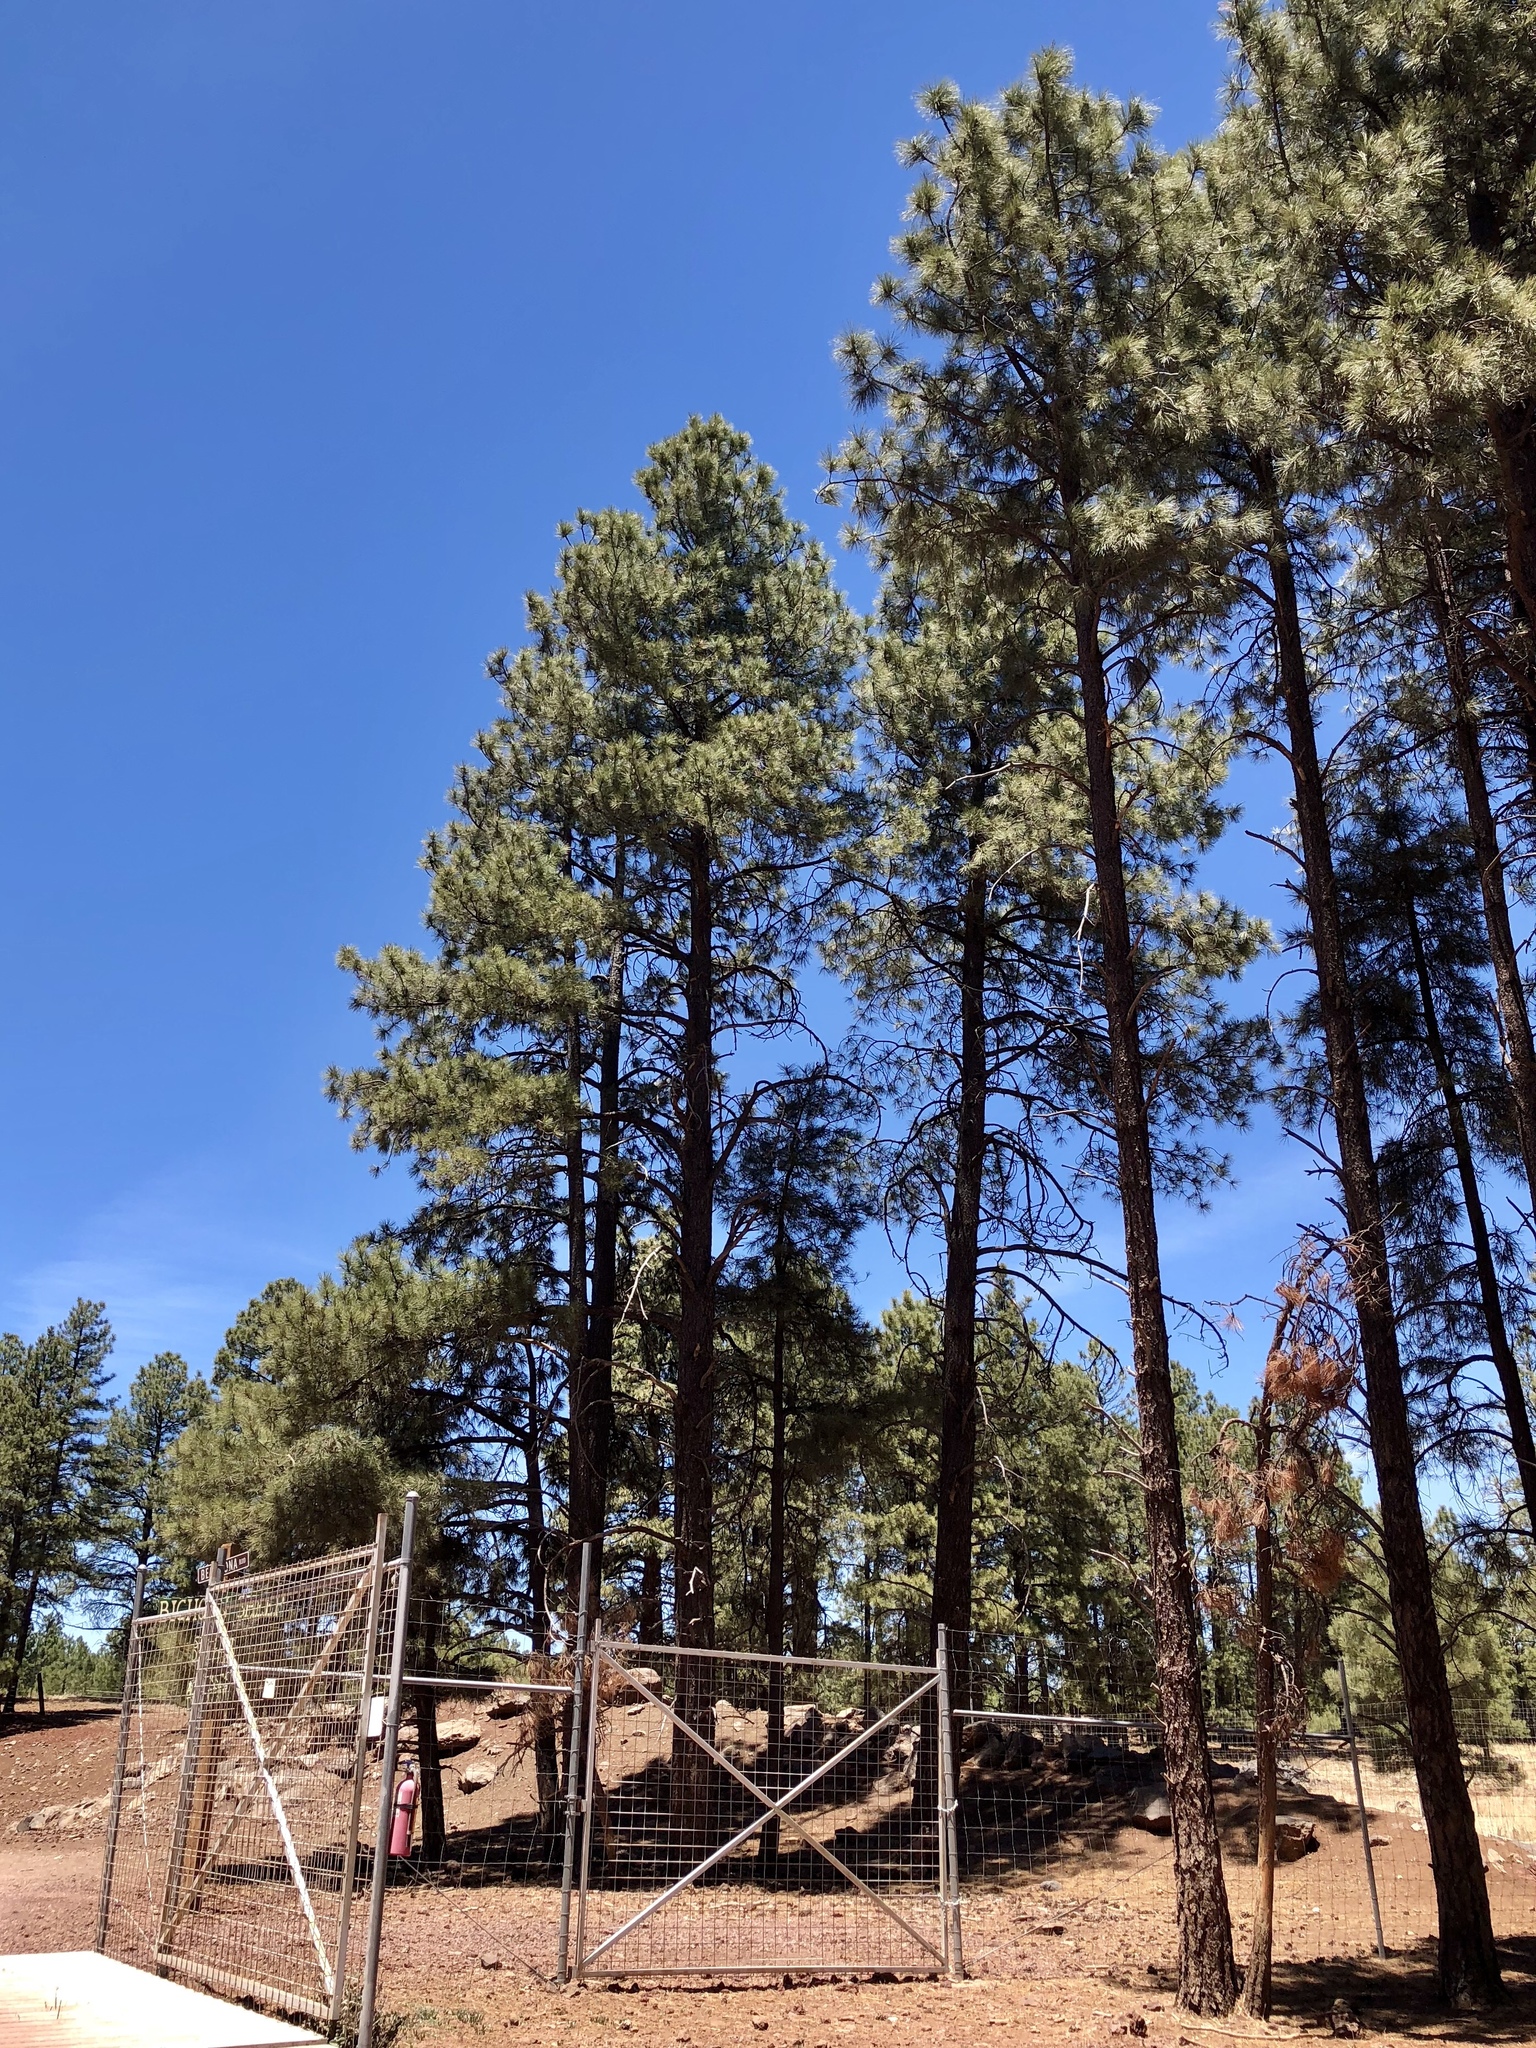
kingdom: Plantae
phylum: Tracheophyta
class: Pinopsida
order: Pinales
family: Pinaceae
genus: Pinus
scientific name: Pinus ponderosa
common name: Western yellow-pine
